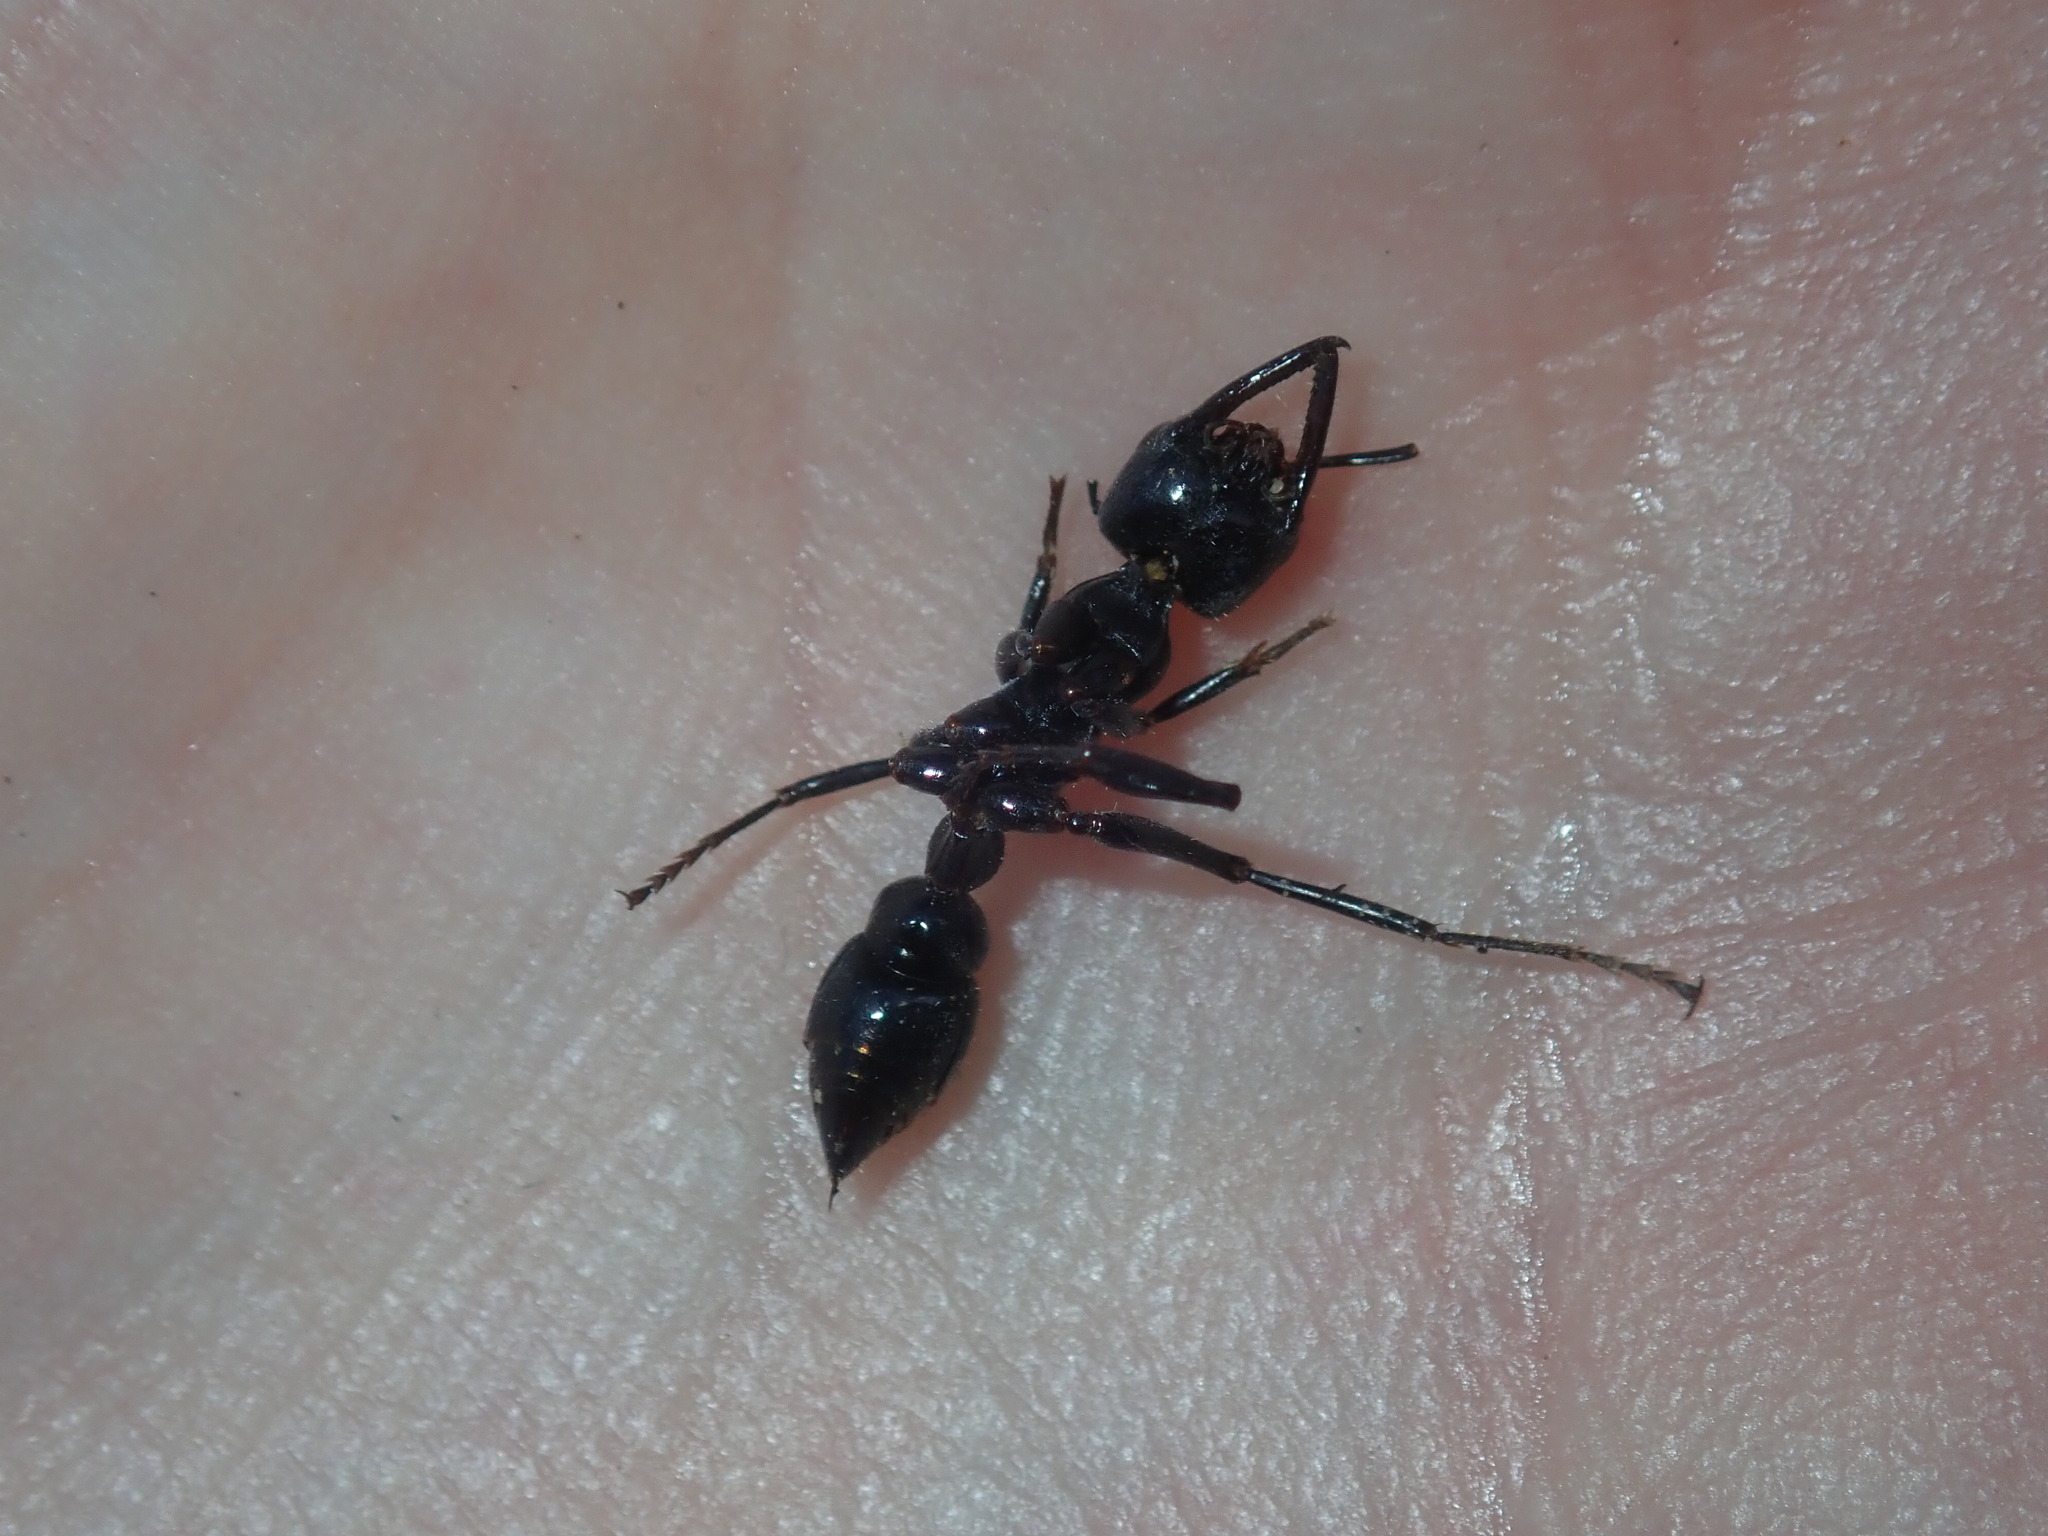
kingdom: Animalia
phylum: Arthropoda
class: Insecta
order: Hymenoptera
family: Formicidae
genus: Myrmecia
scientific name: Myrmecia piliventris
